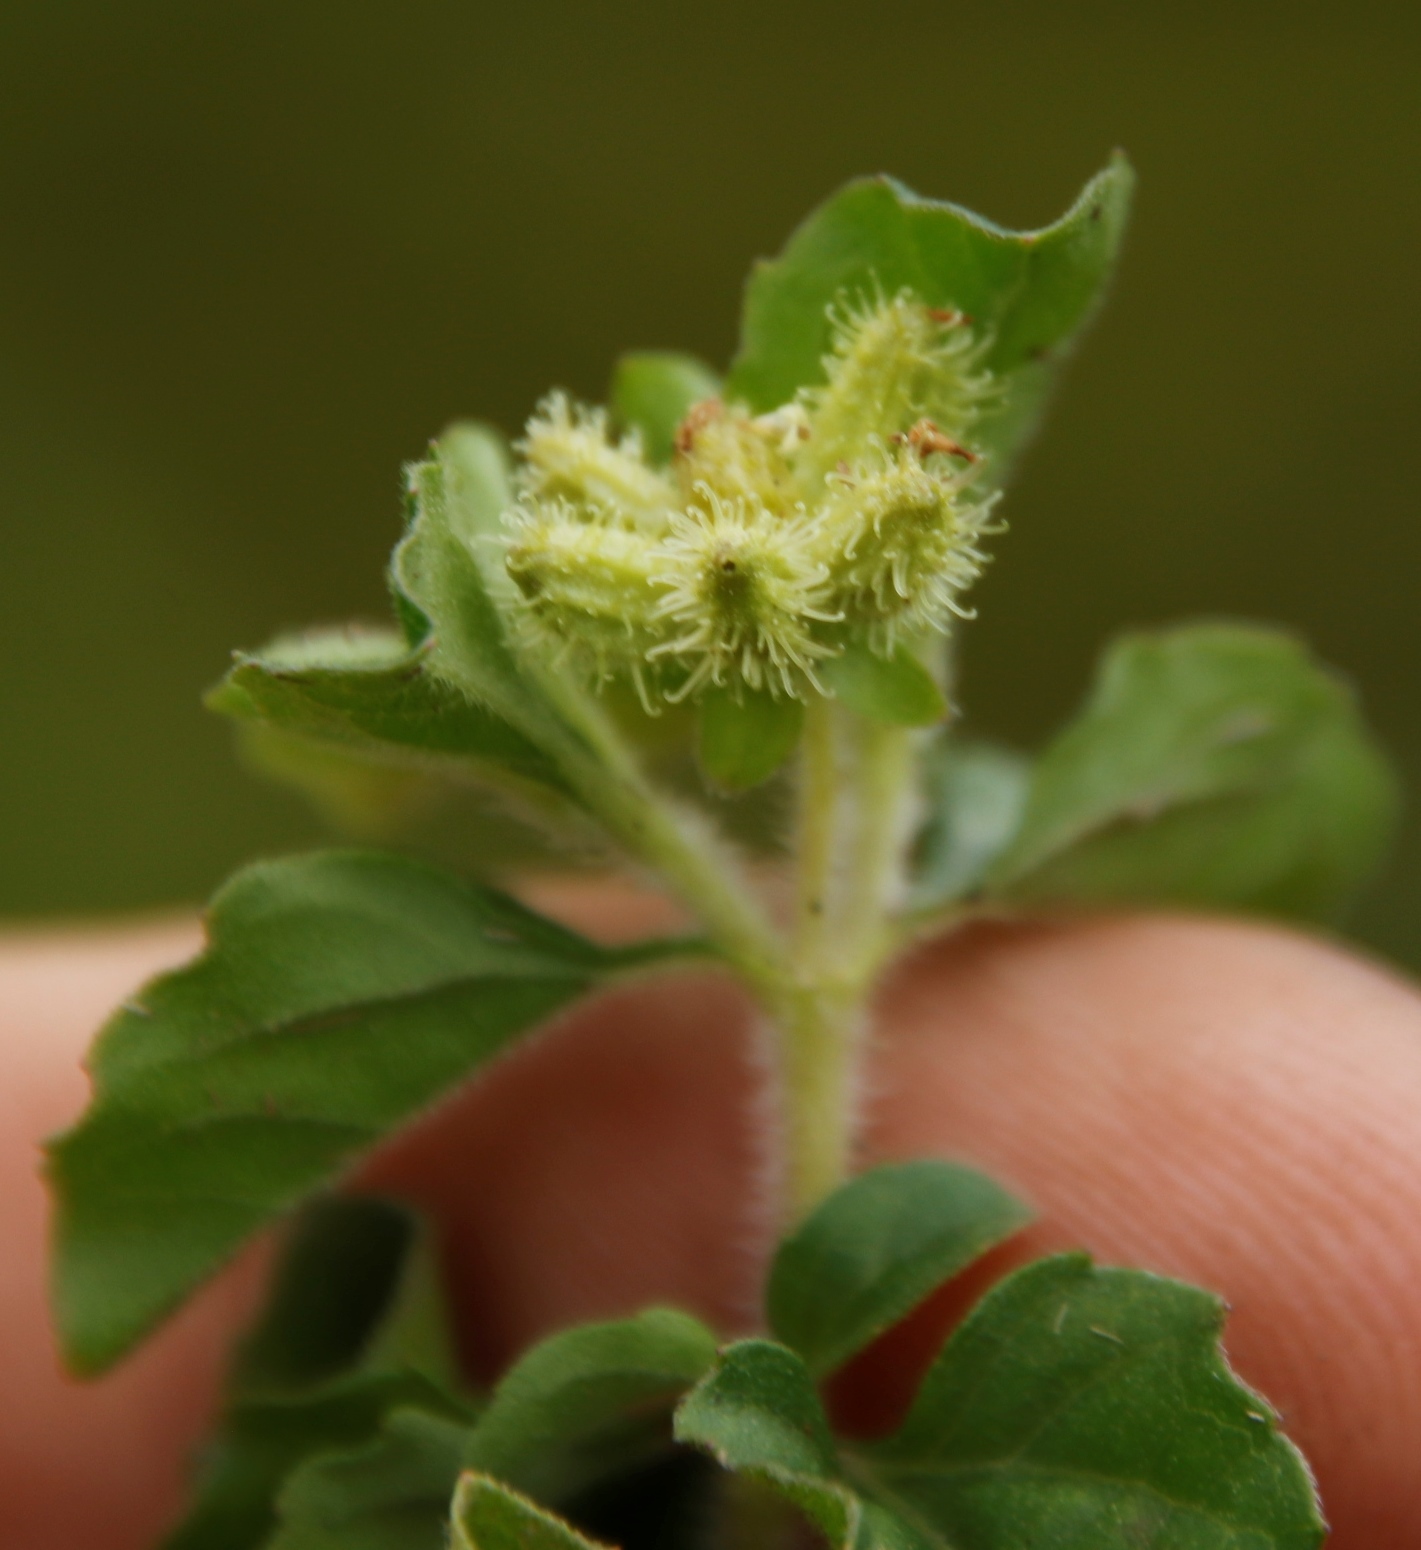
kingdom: Plantae
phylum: Tracheophyta
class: Magnoliopsida
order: Asterales
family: Asteraceae
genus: Acanthospermum
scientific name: Acanthospermum australe
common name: Paraguayan starbur
